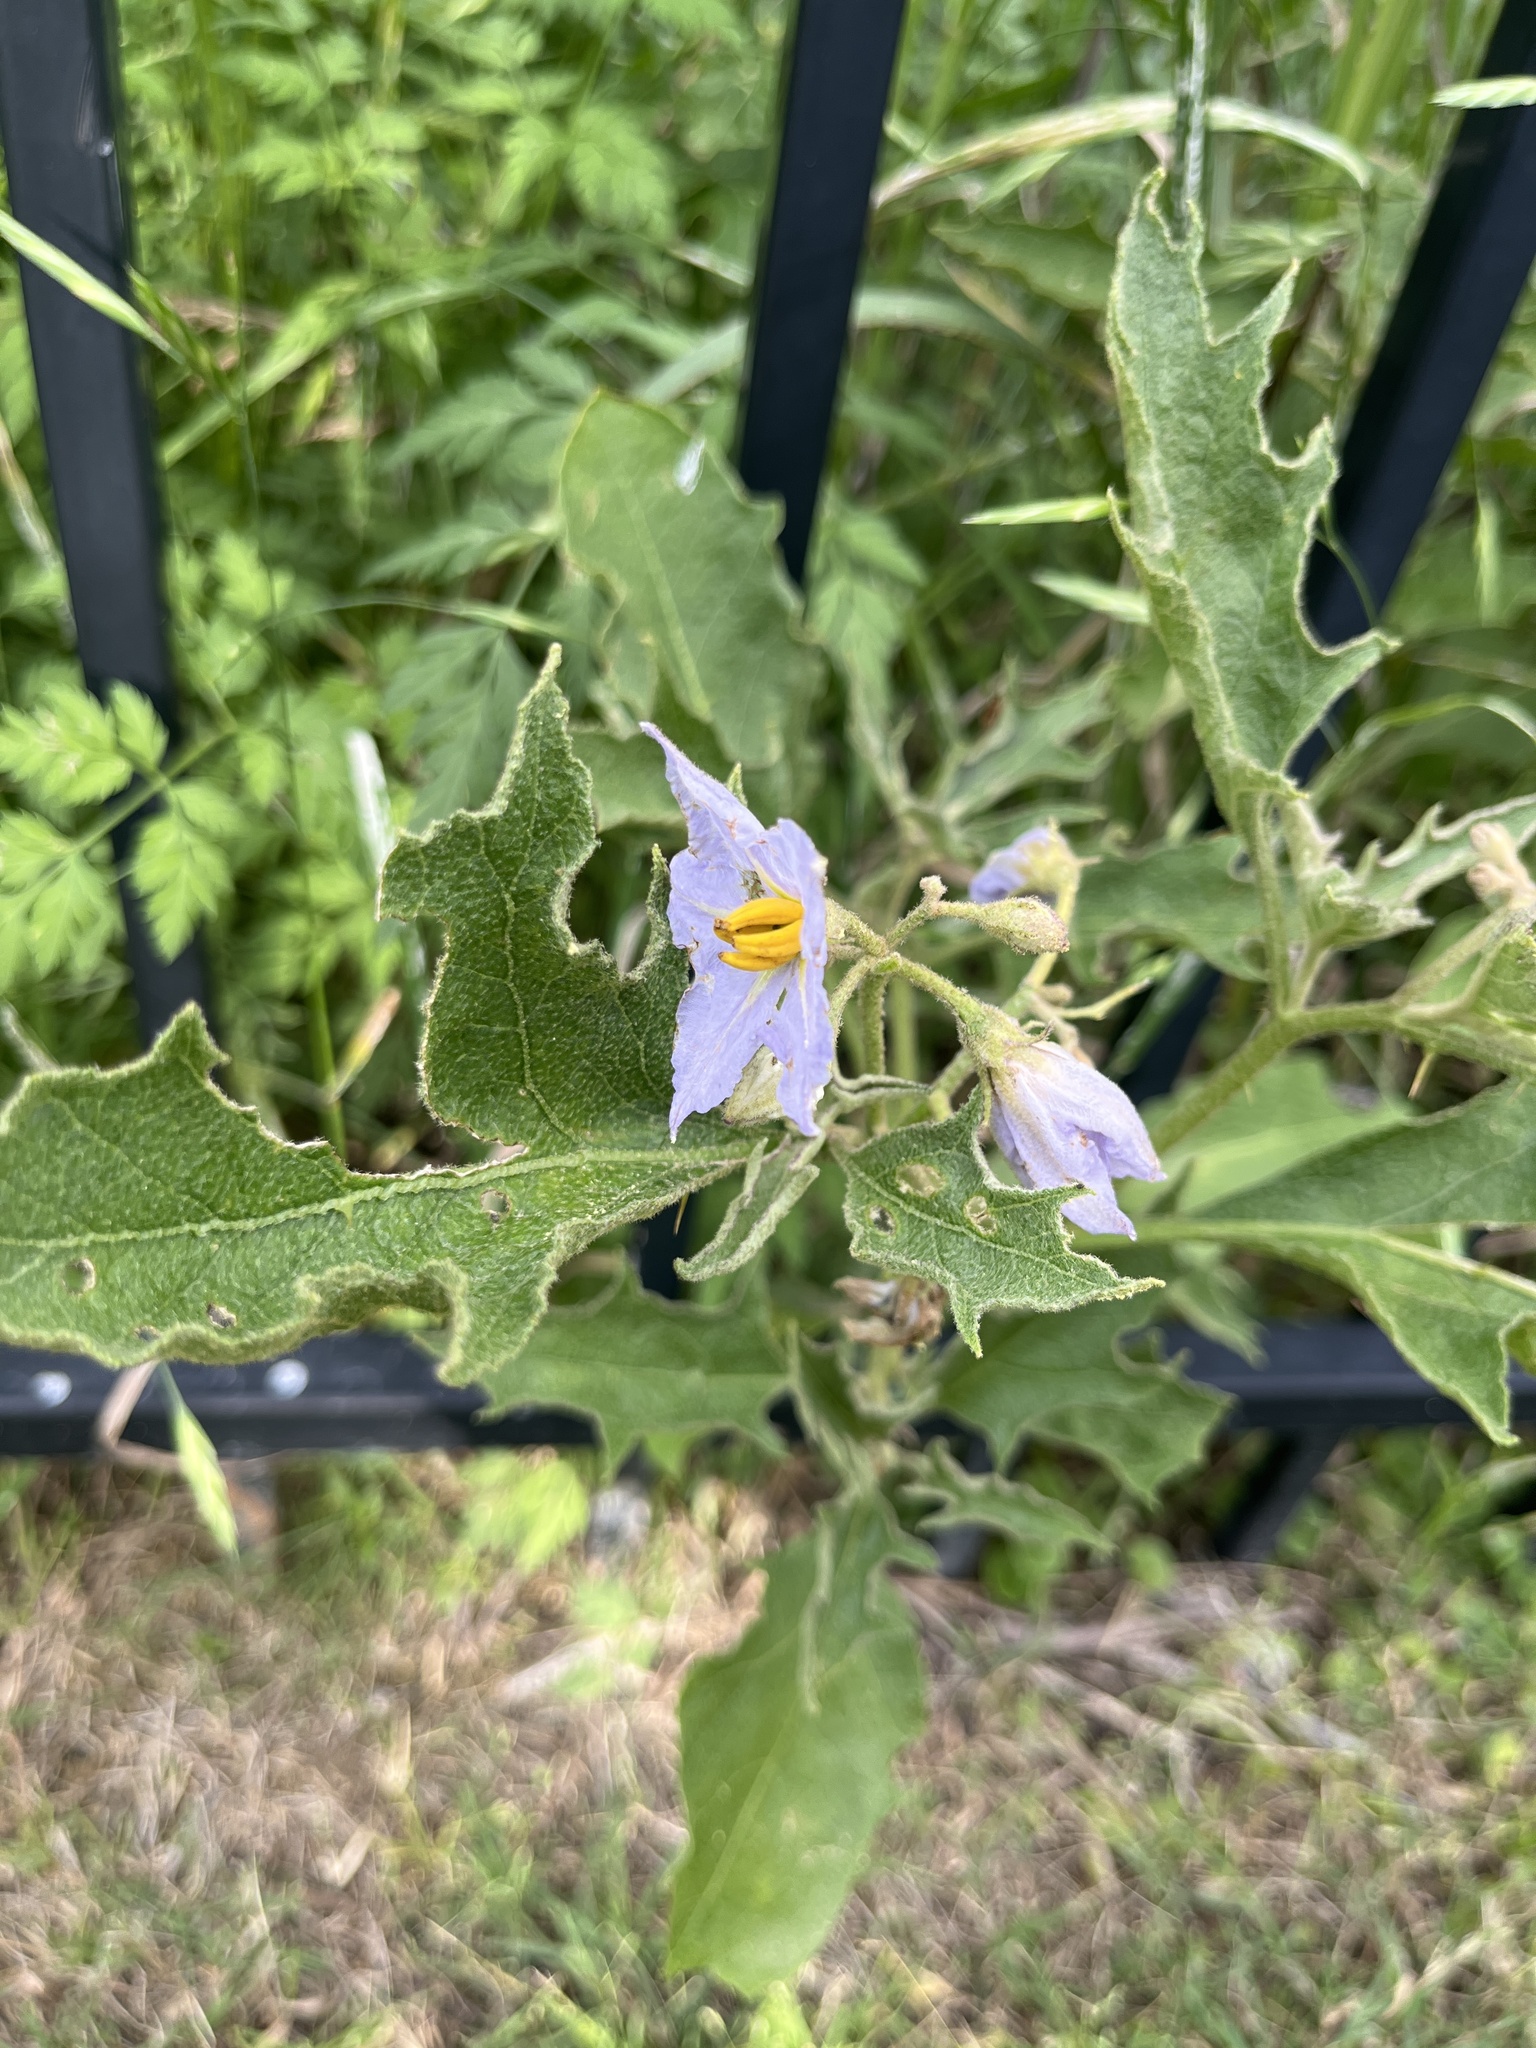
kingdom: Plantae
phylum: Tracheophyta
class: Magnoliopsida
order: Solanales
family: Solanaceae
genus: Solanum
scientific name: Solanum dimidiatum
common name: Carolina horse-nettle
